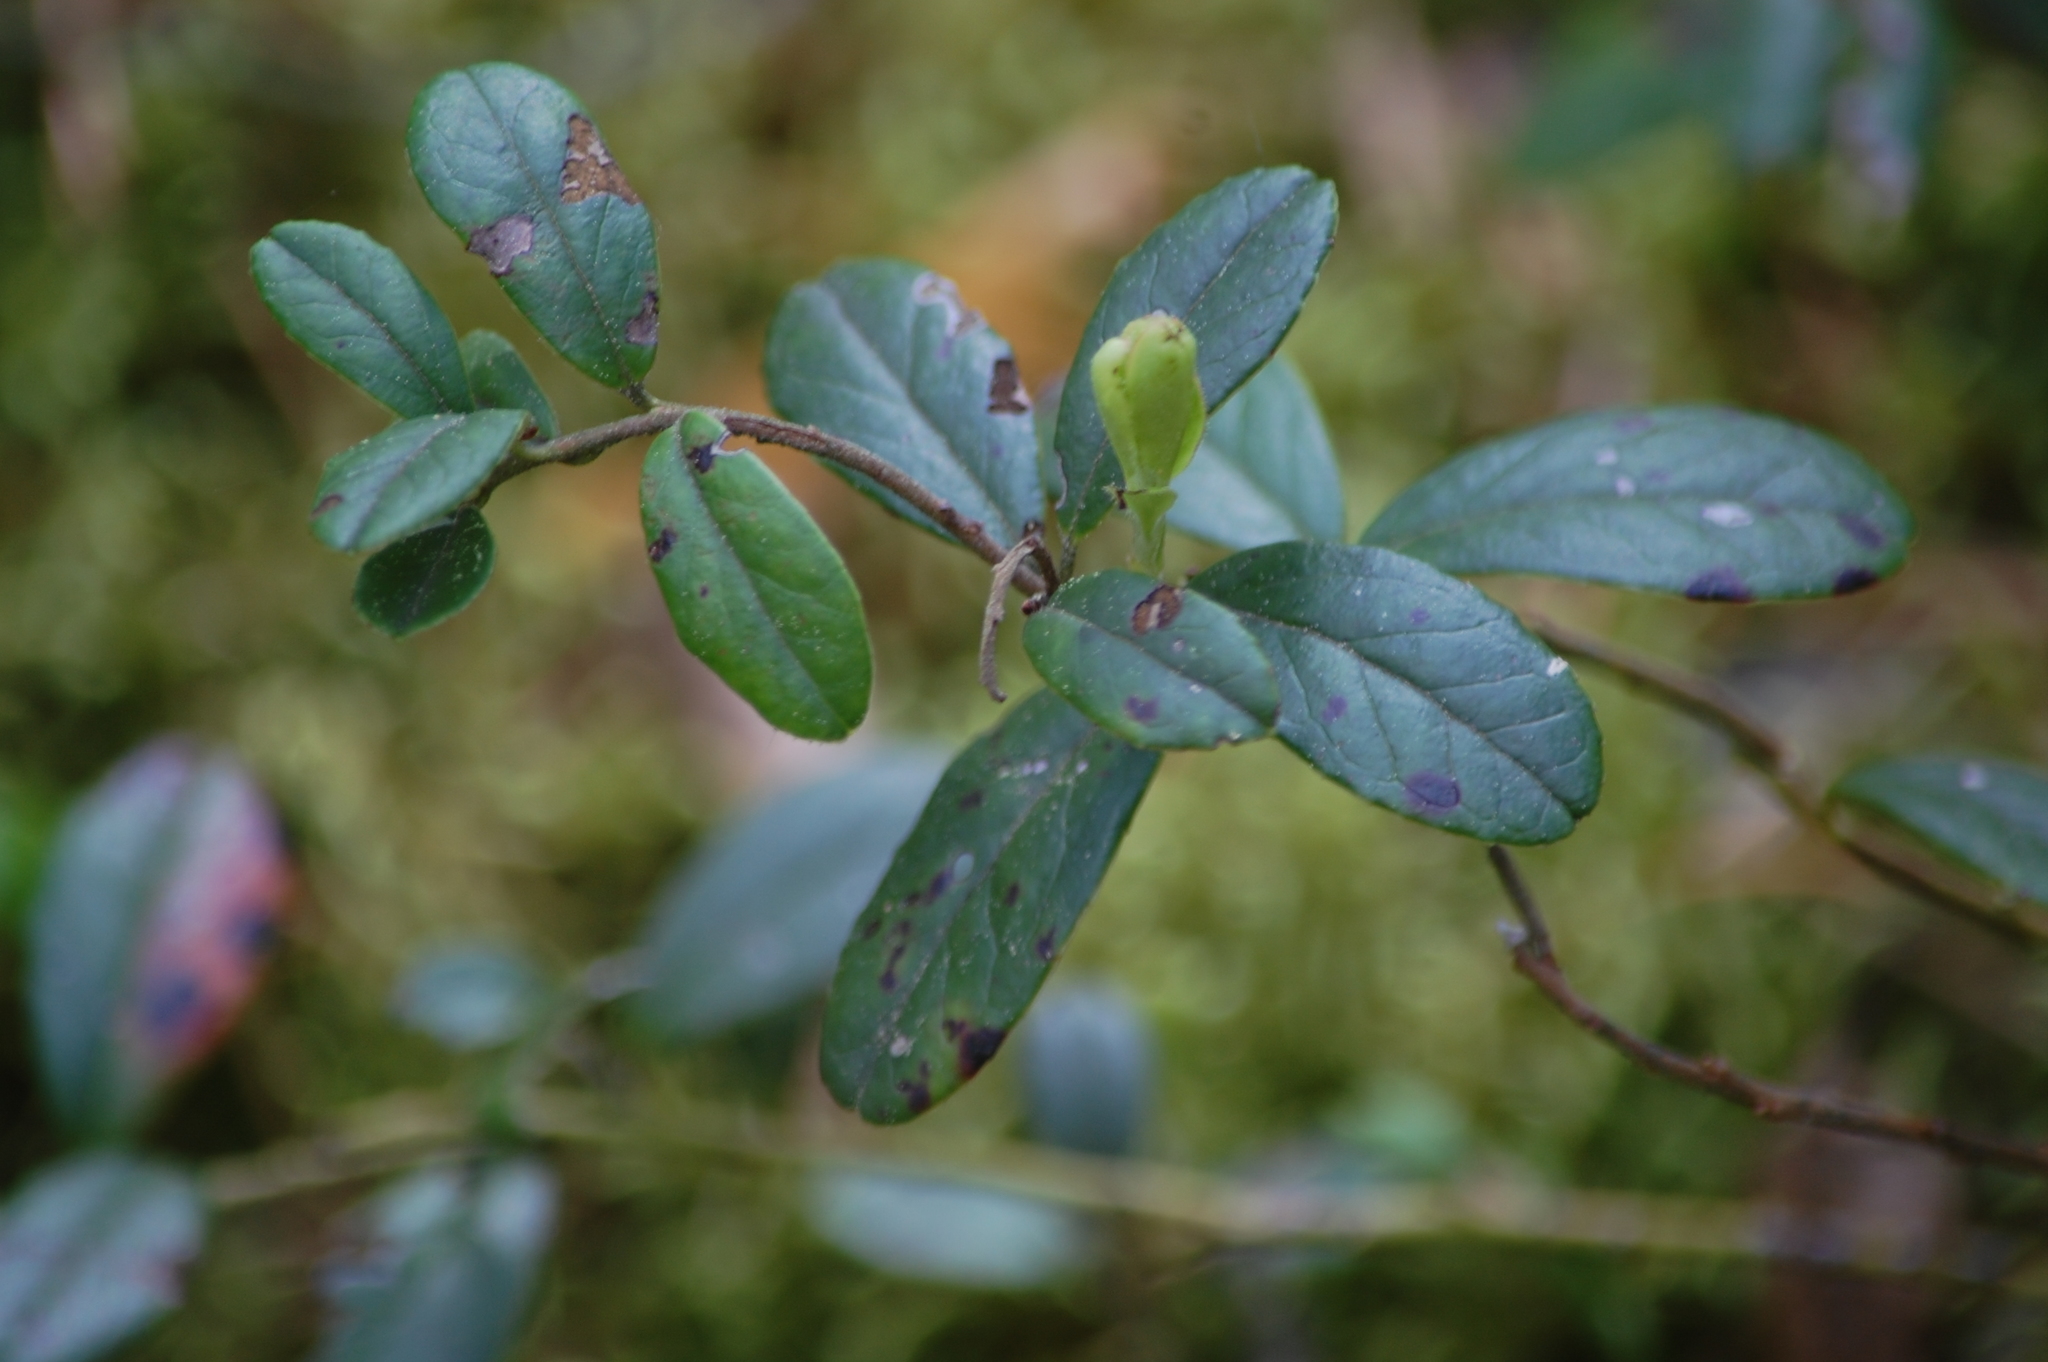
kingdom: Plantae
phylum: Tracheophyta
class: Magnoliopsida
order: Ericales
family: Ericaceae
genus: Vaccinium
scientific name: Vaccinium vitis-idaea
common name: Cowberry
